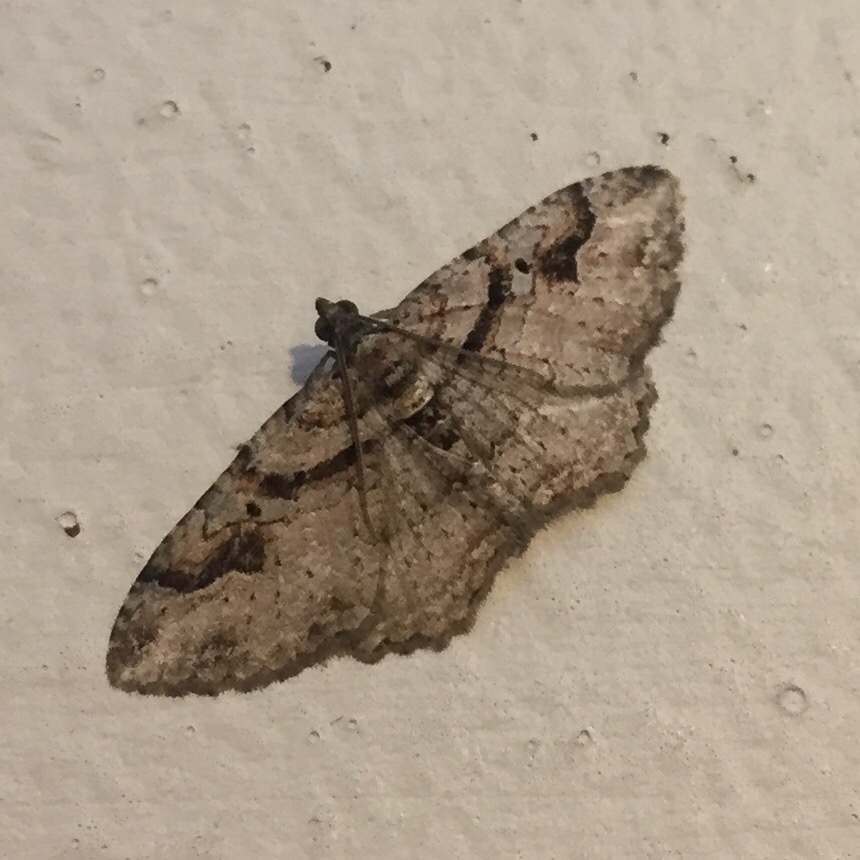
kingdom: Animalia
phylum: Arthropoda
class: Insecta
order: Lepidoptera
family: Geometridae
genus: Costaconvexa
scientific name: Costaconvexa centrostrigaria
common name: Bent-line carpet
